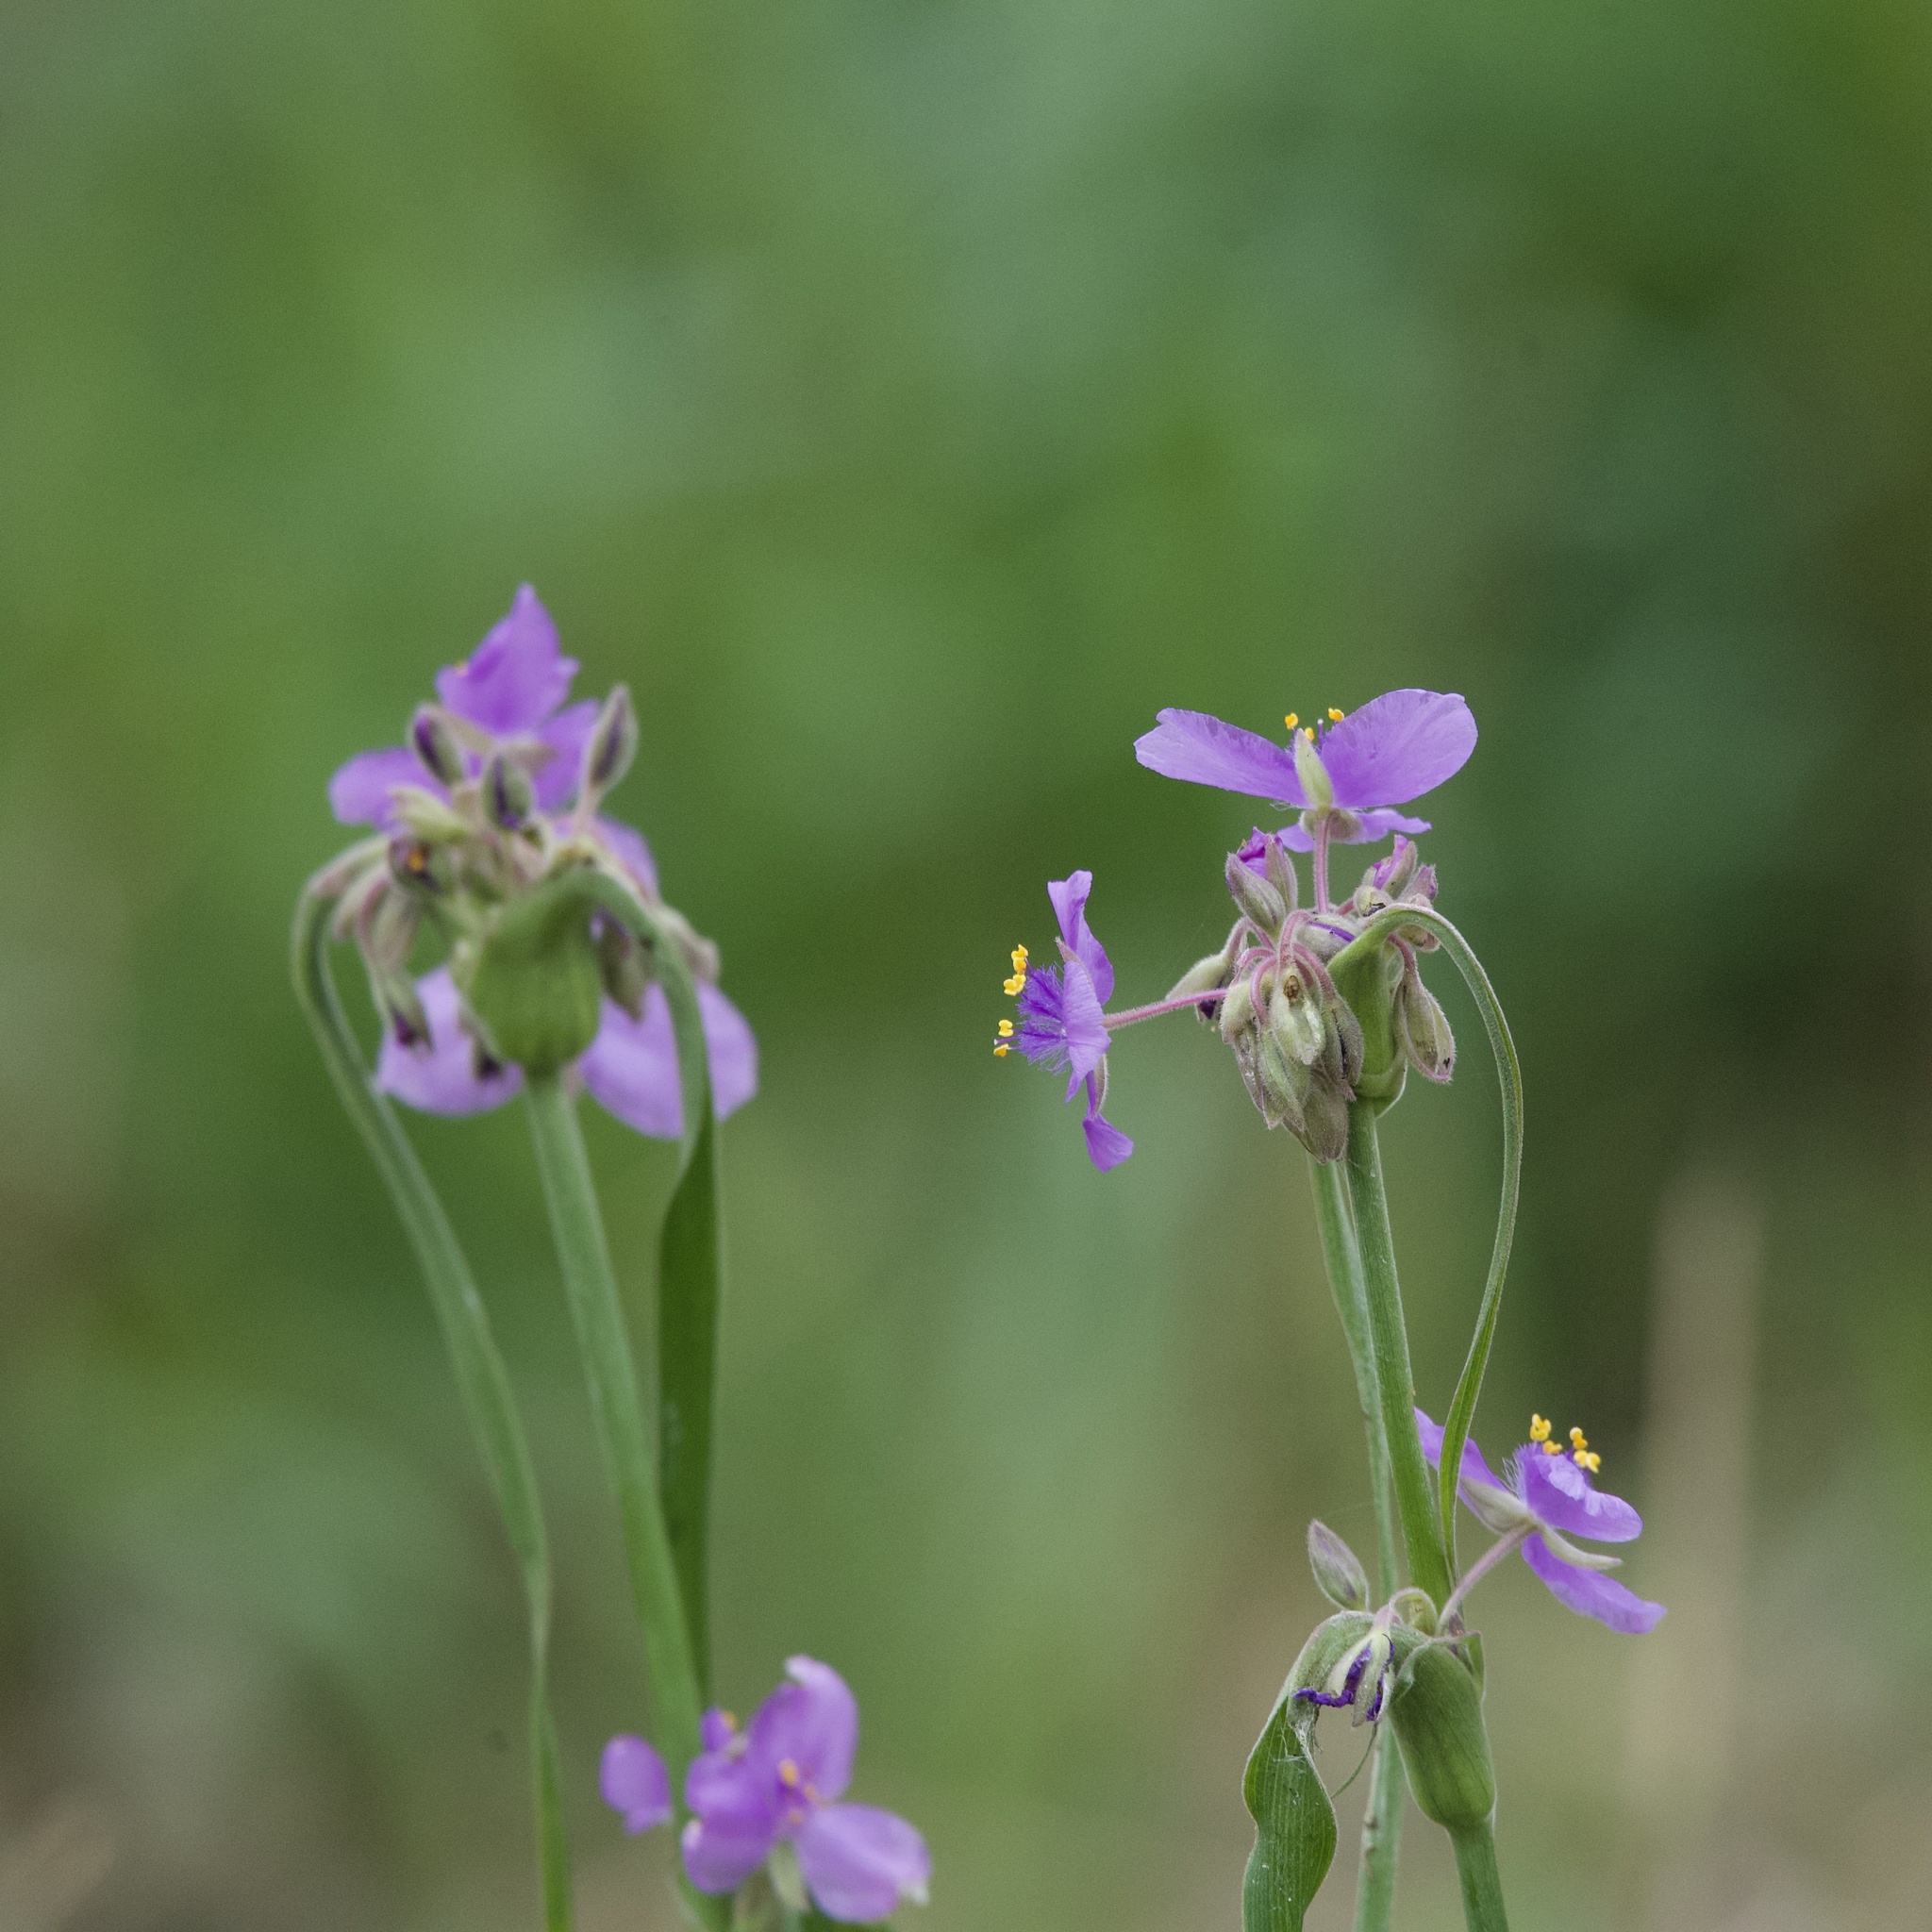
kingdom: Plantae
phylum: Tracheophyta
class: Liliopsida
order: Commelinales
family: Commelinaceae
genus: Tradescantia
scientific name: Tradescantia gigantea
